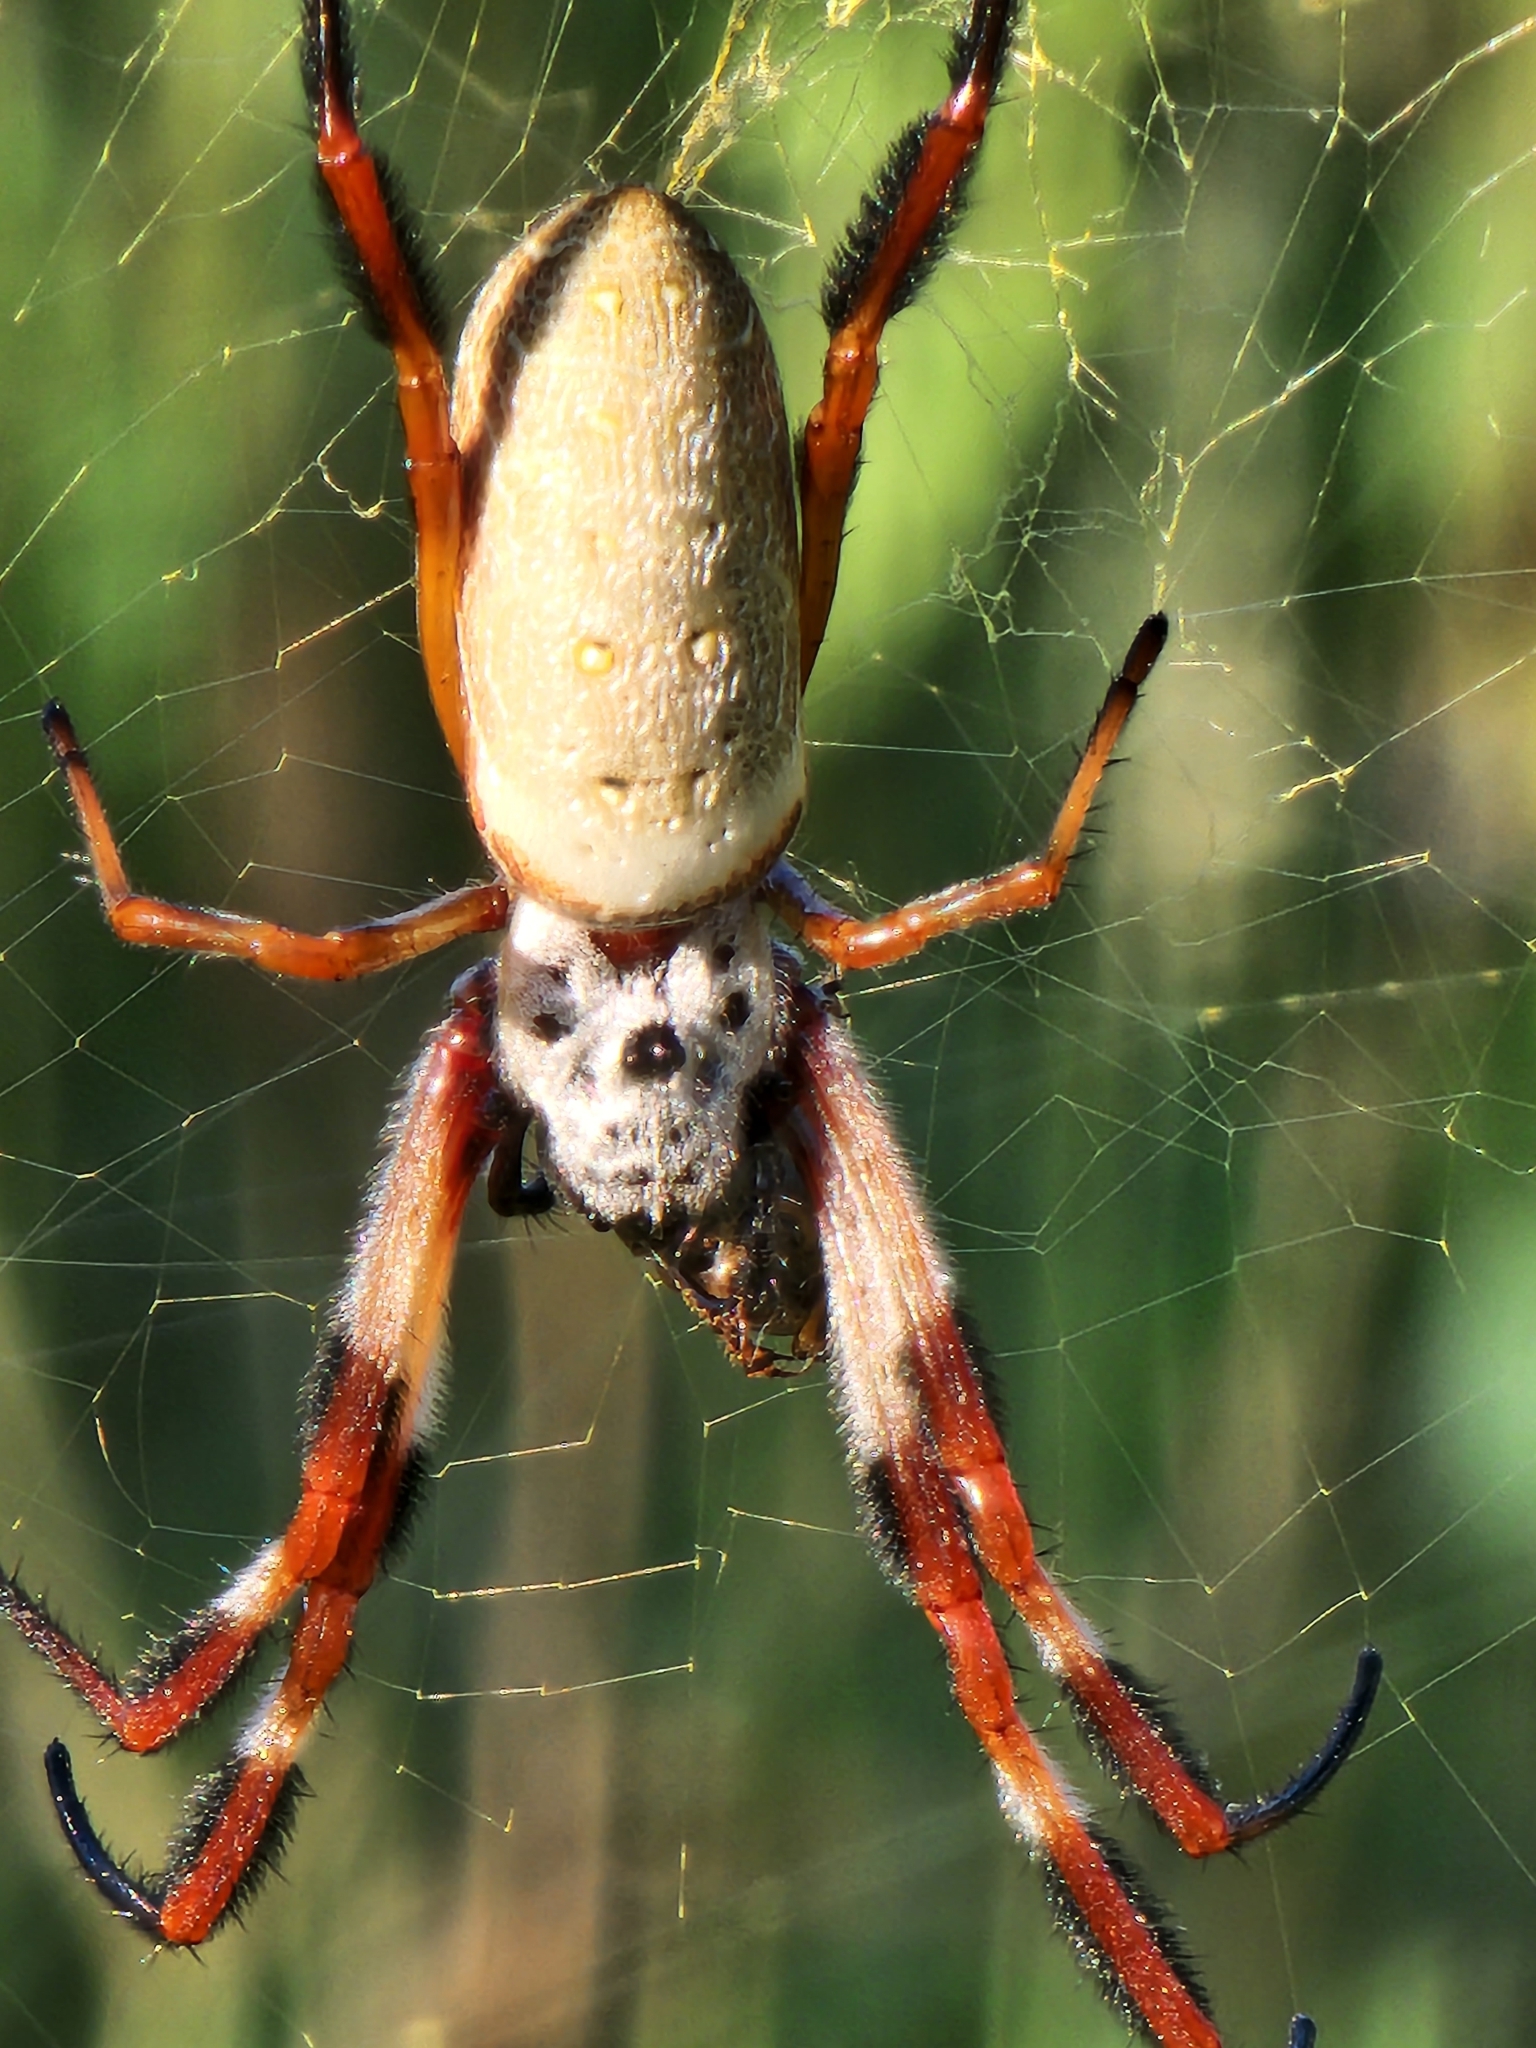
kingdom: Animalia
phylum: Arthropoda
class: Arachnida
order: Araneae
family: Araneidae
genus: Trichonephila
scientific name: Trichonephila edulis
